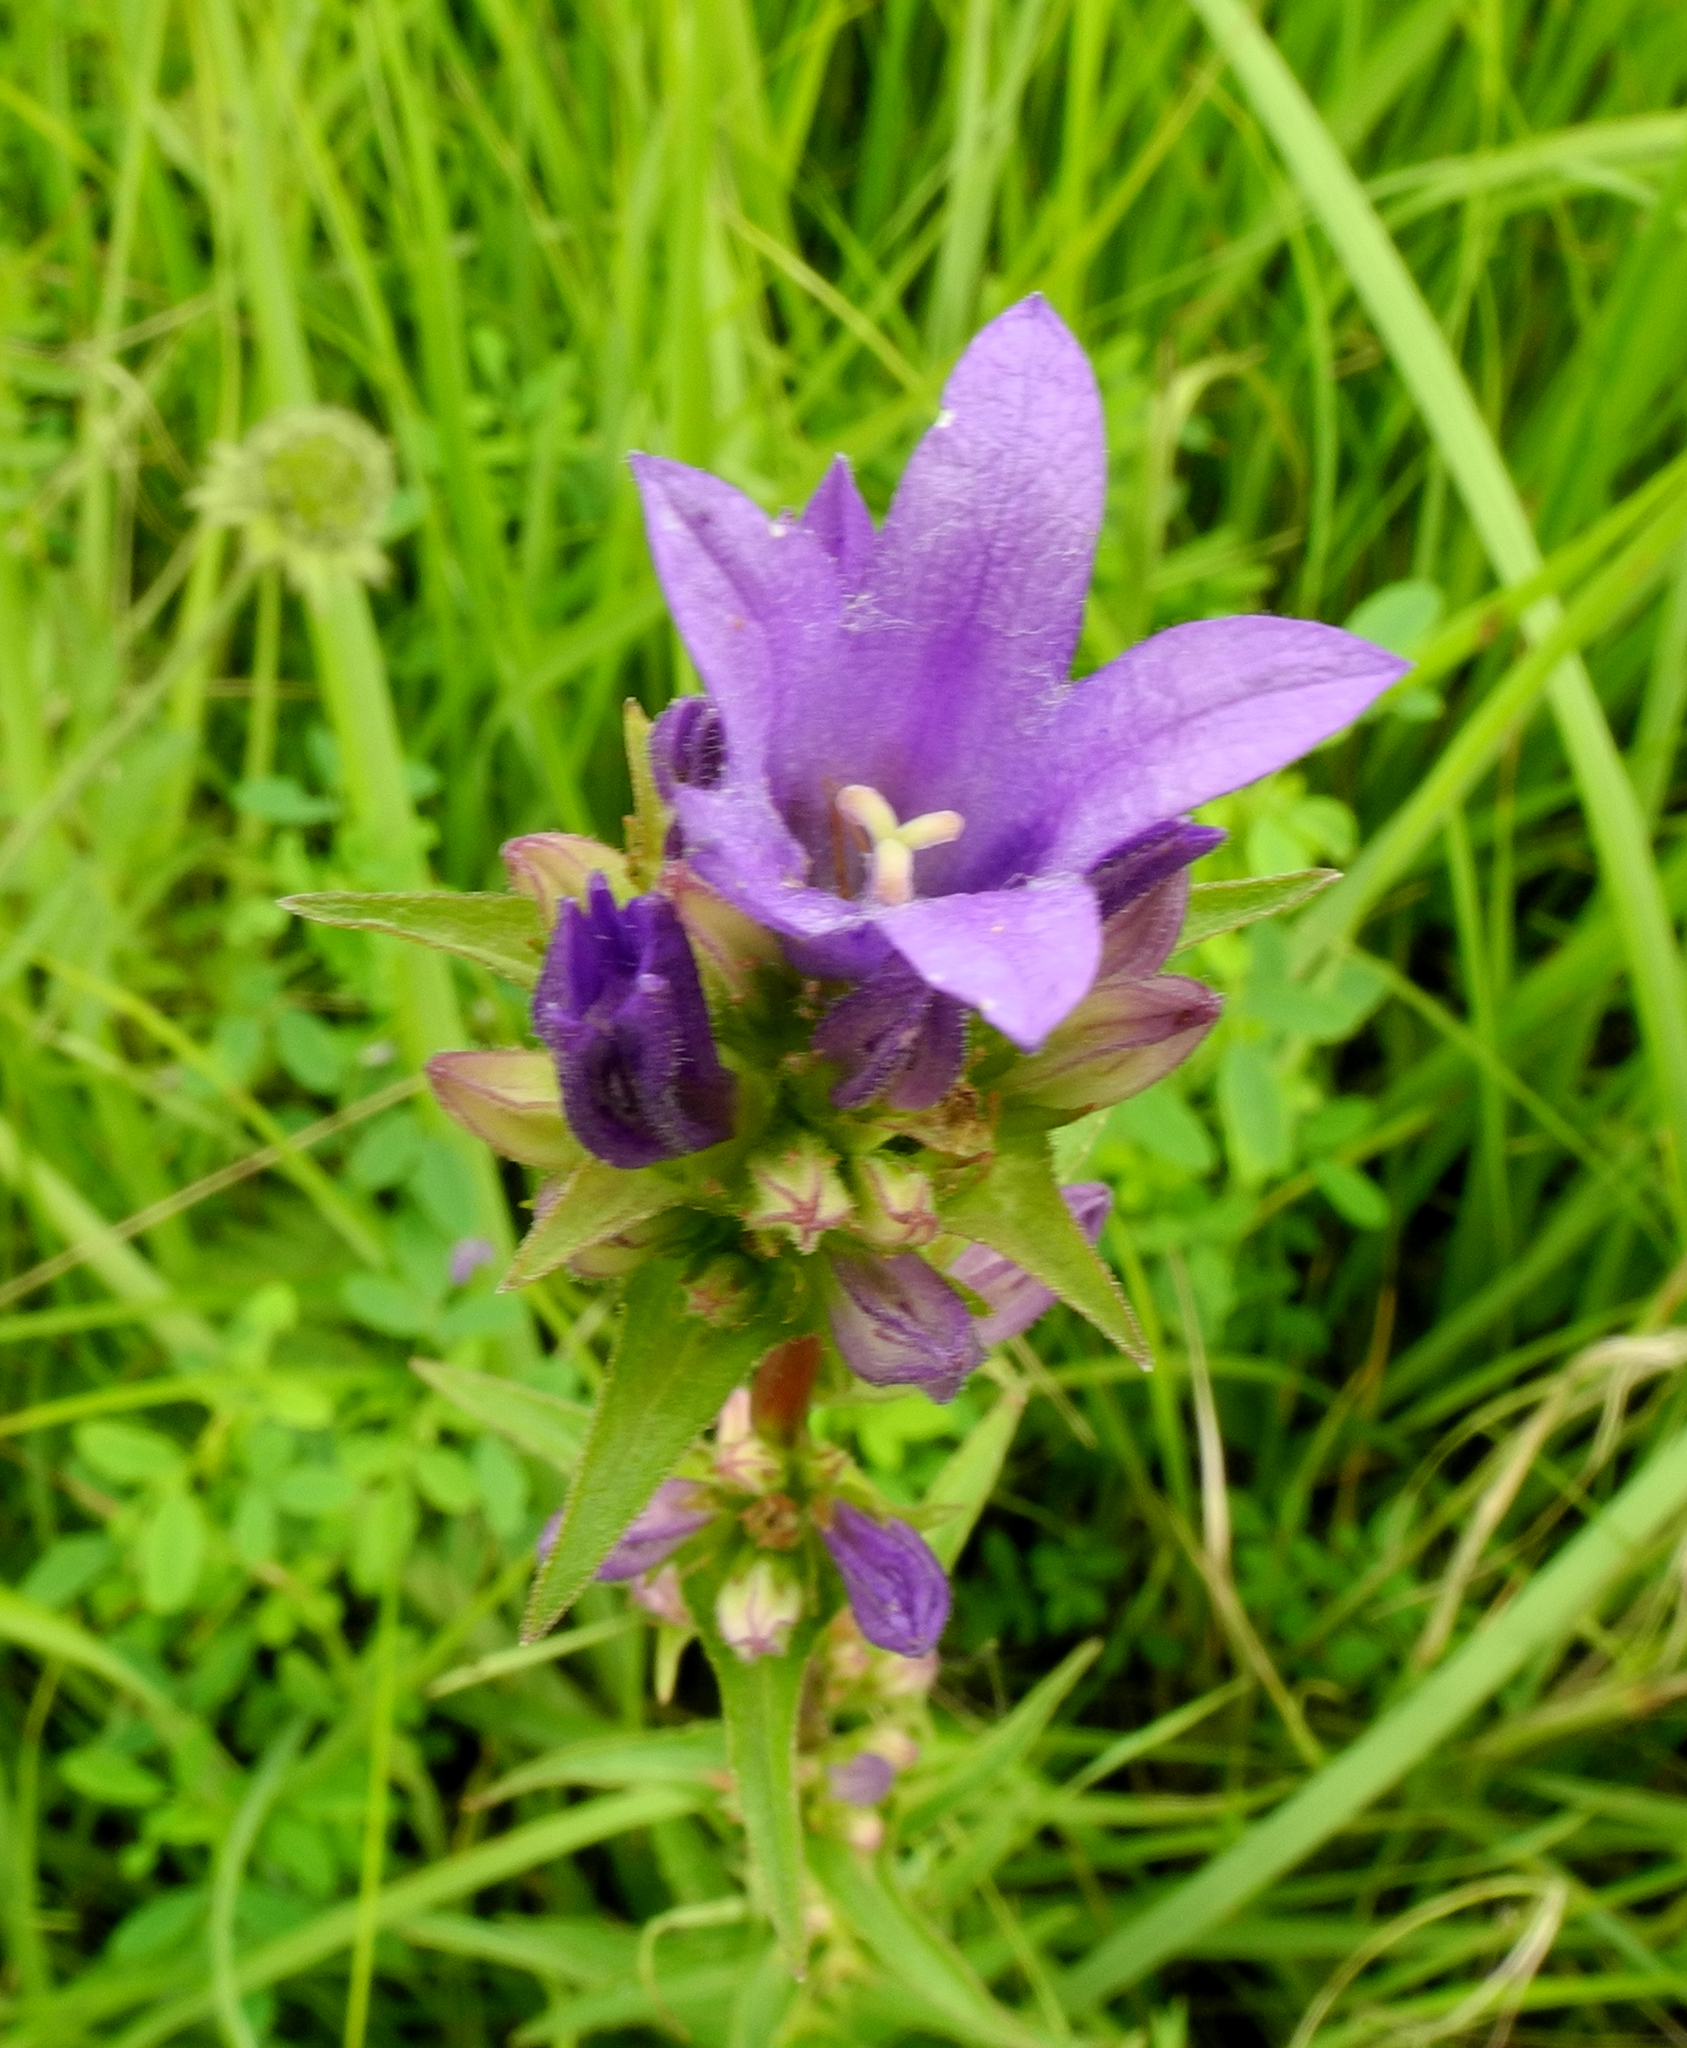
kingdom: Plantae
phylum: Tracheophyta
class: Magnoliopsida
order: Asterales
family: Campanulaceae
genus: Campanula
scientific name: Campanula glomerata
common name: Clustered bellflower
